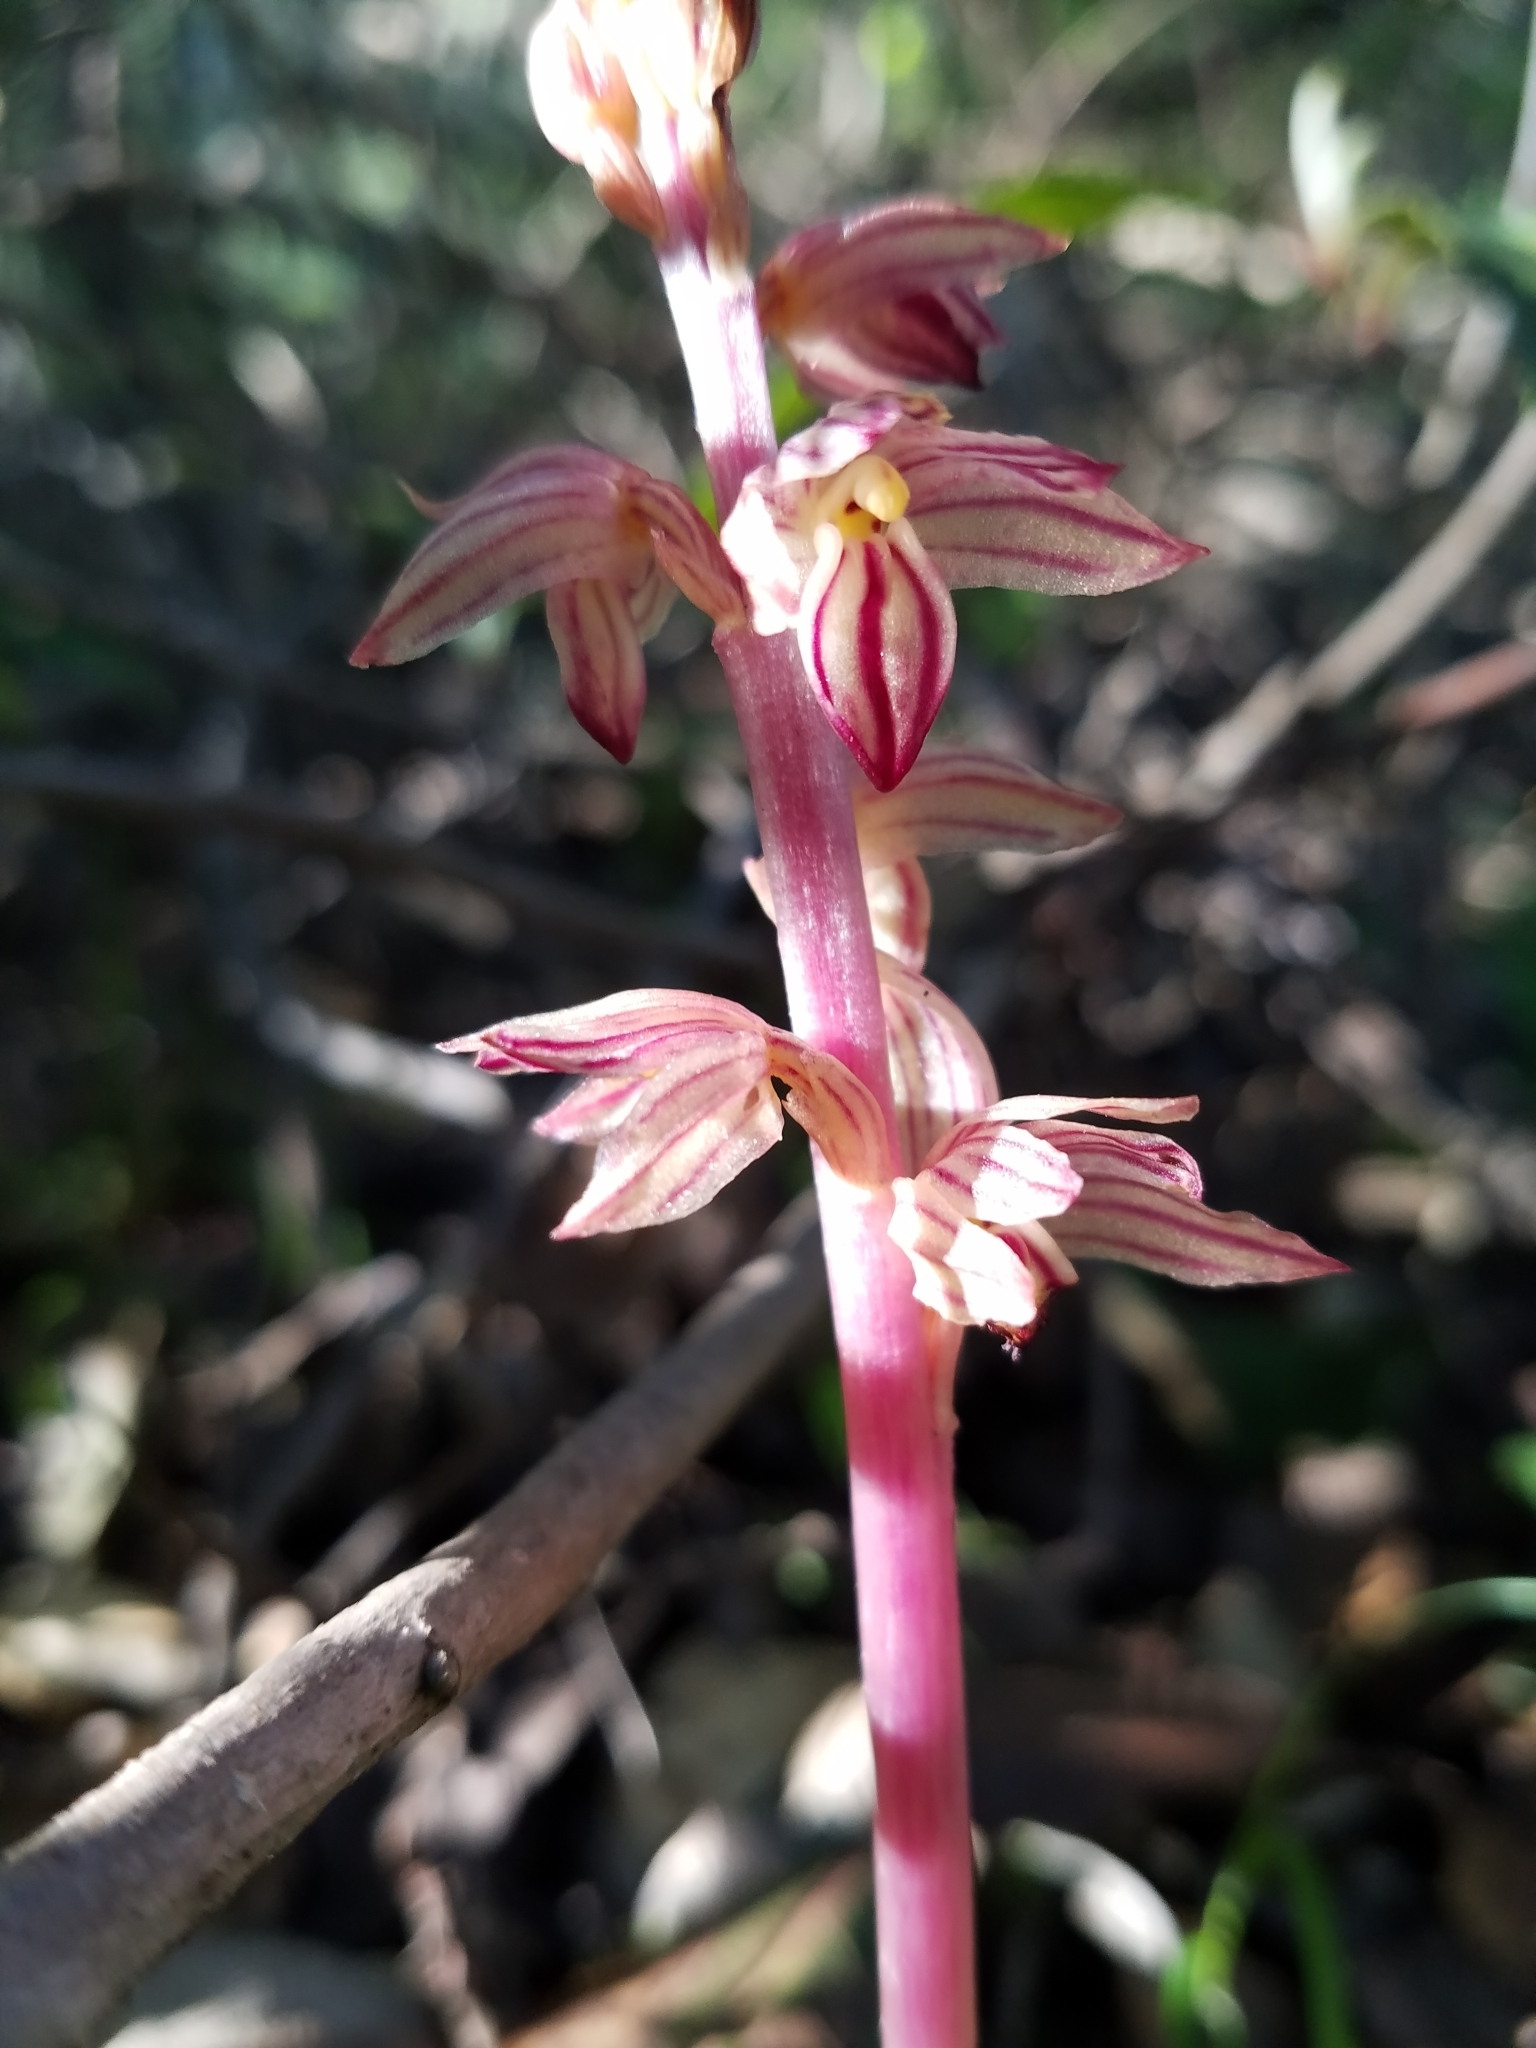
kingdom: Plantae
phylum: Tracheophyta
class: Liliopsida
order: Asparagales
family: Orchidaceae
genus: Corallorhiza
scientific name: Corallorhiza striata
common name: Hooded coralroot
